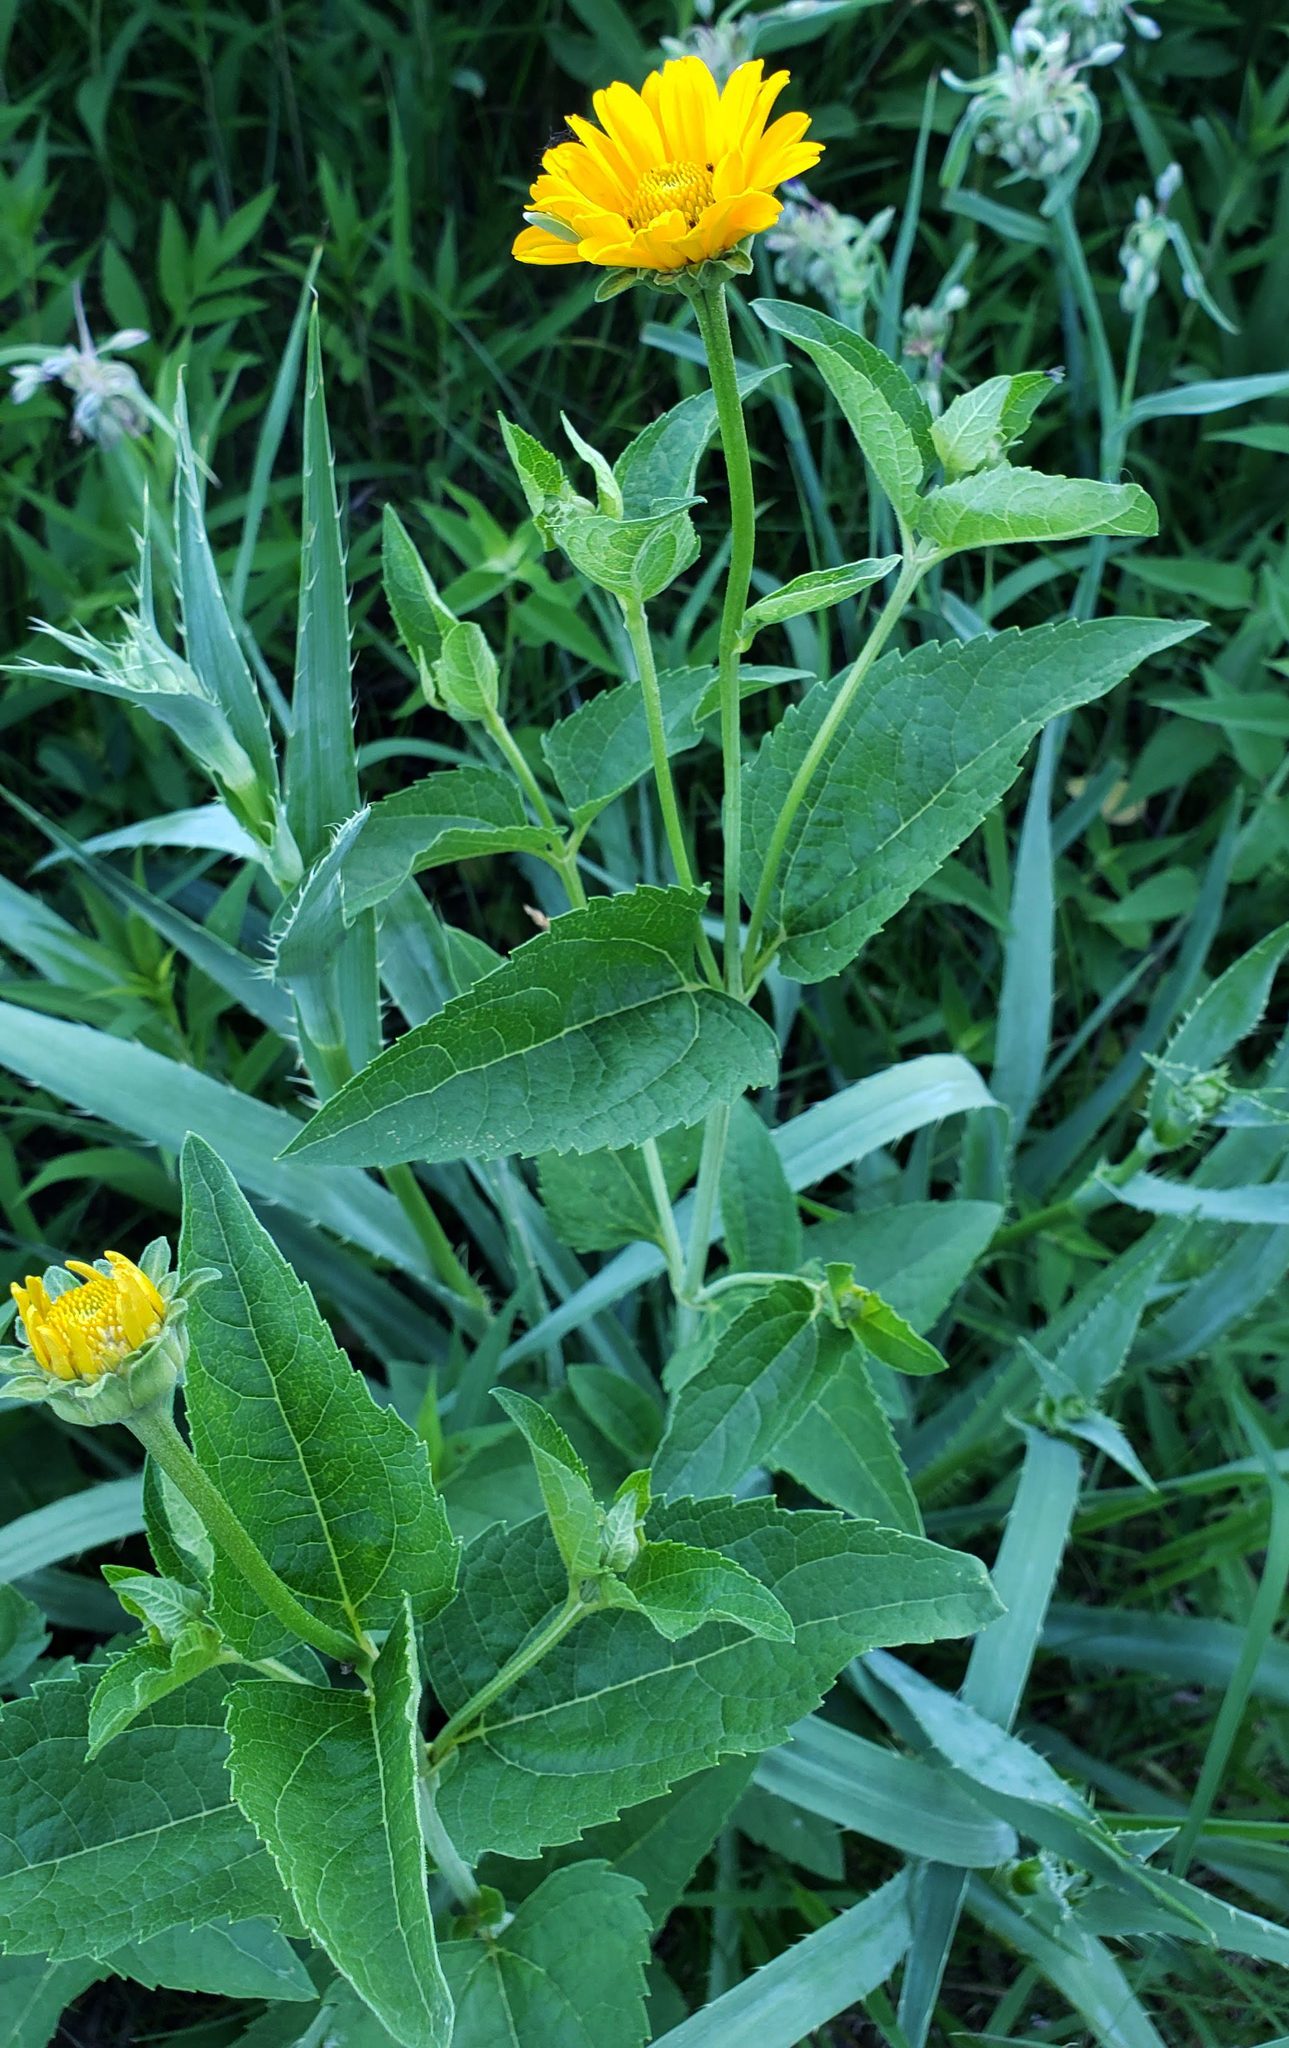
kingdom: Plantae
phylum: Tracheophyta
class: Magnoliopsida
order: Asterales
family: Asteraceae
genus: Heliopsis
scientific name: Heliopsis helianthoides
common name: False sunflower
